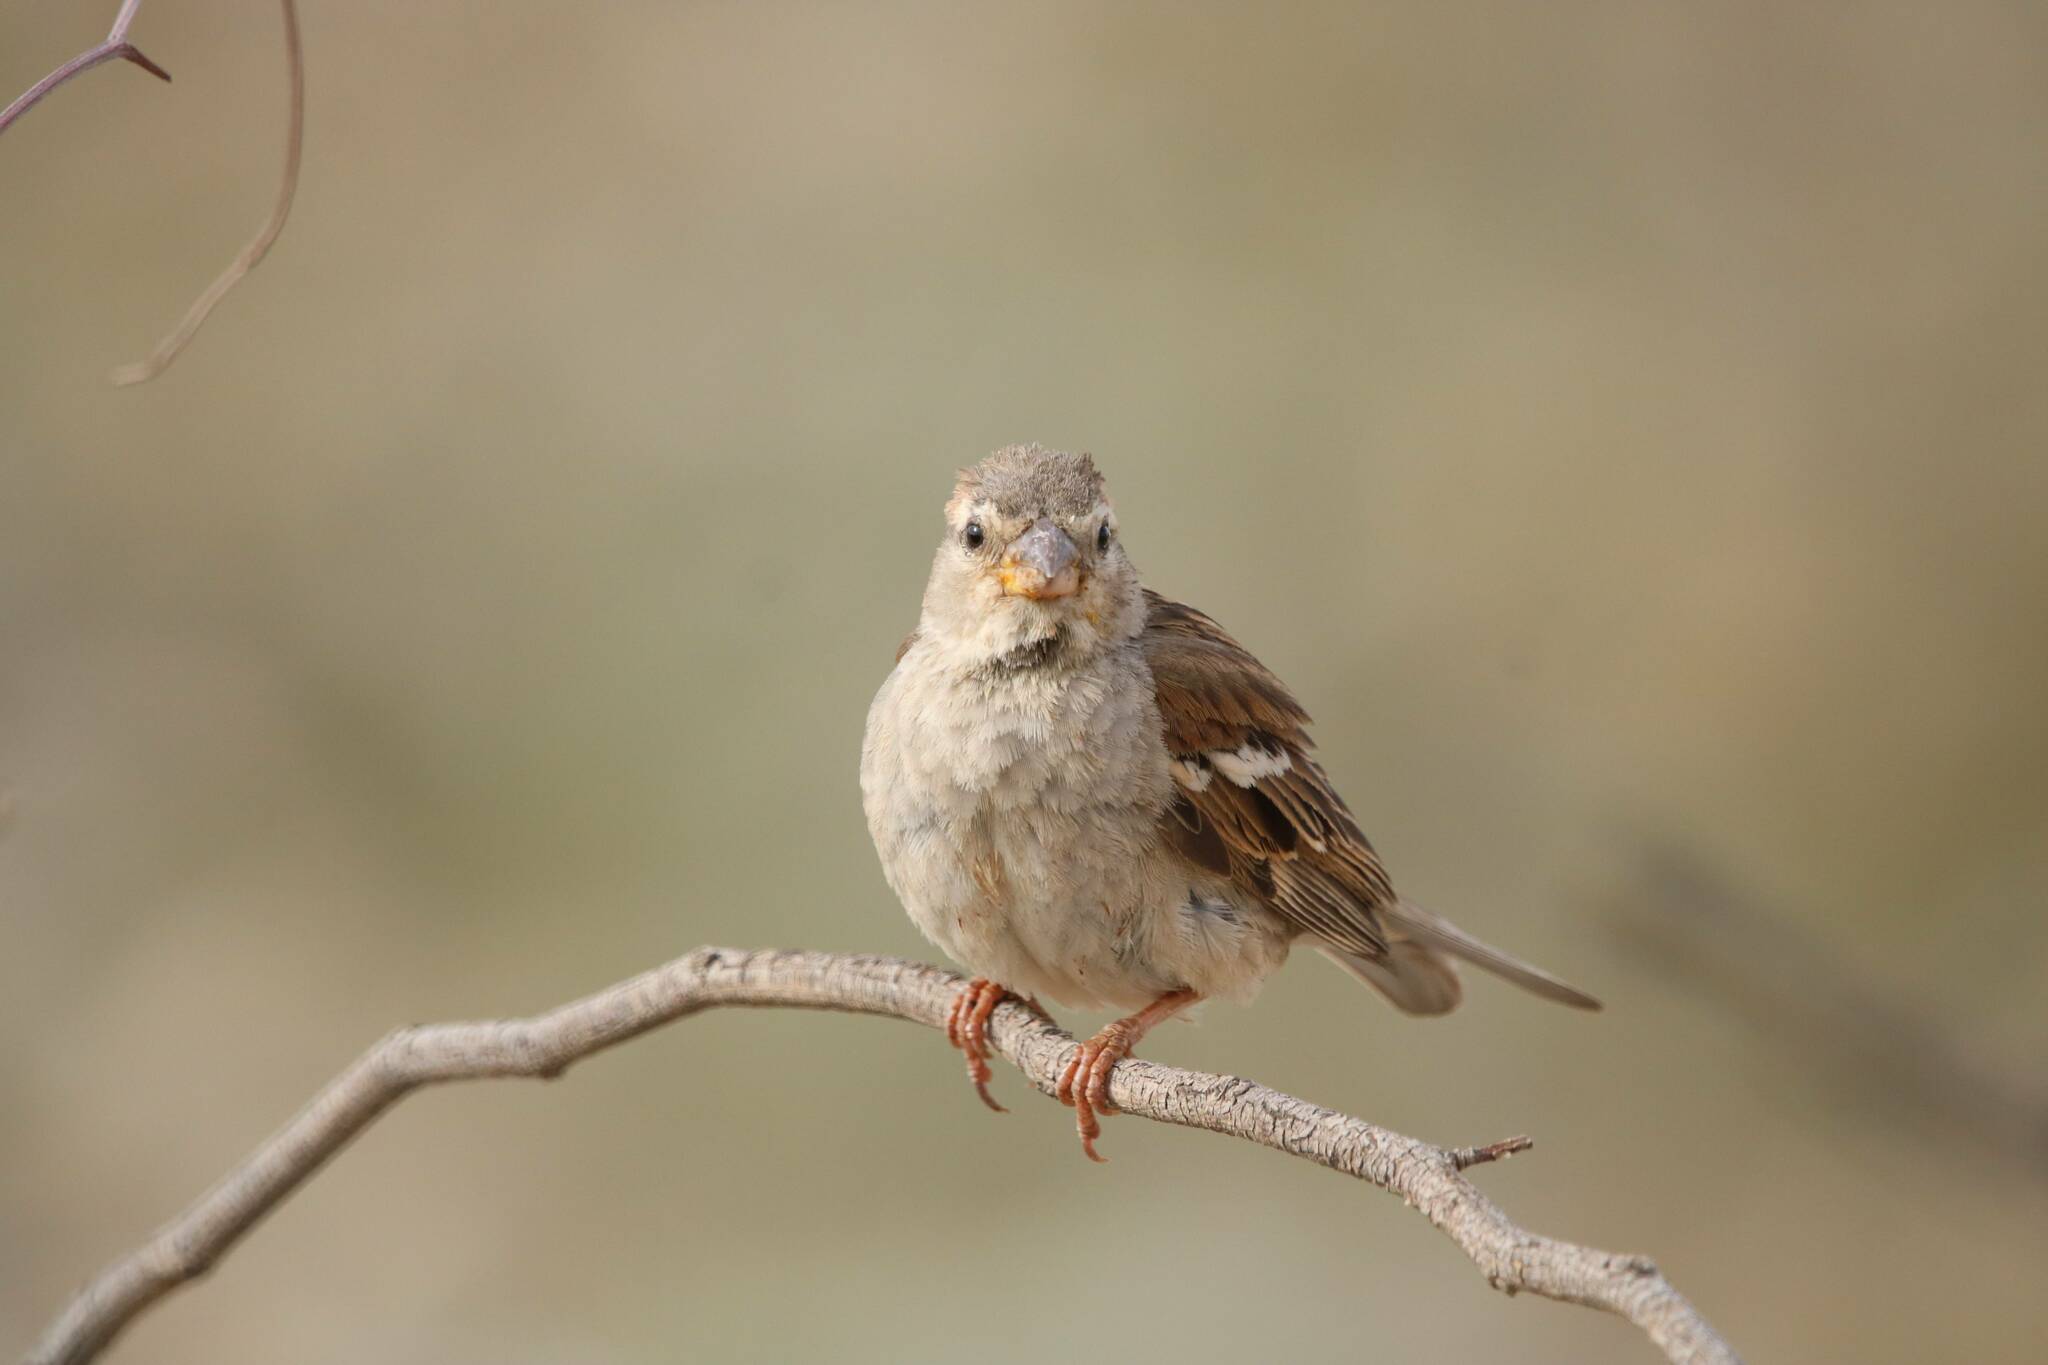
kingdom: Animalia
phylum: Chordata
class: Aves
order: Passeriformes
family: Passeridae
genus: Passer
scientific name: Passer hispaniolensis
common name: Spanish sparrow
